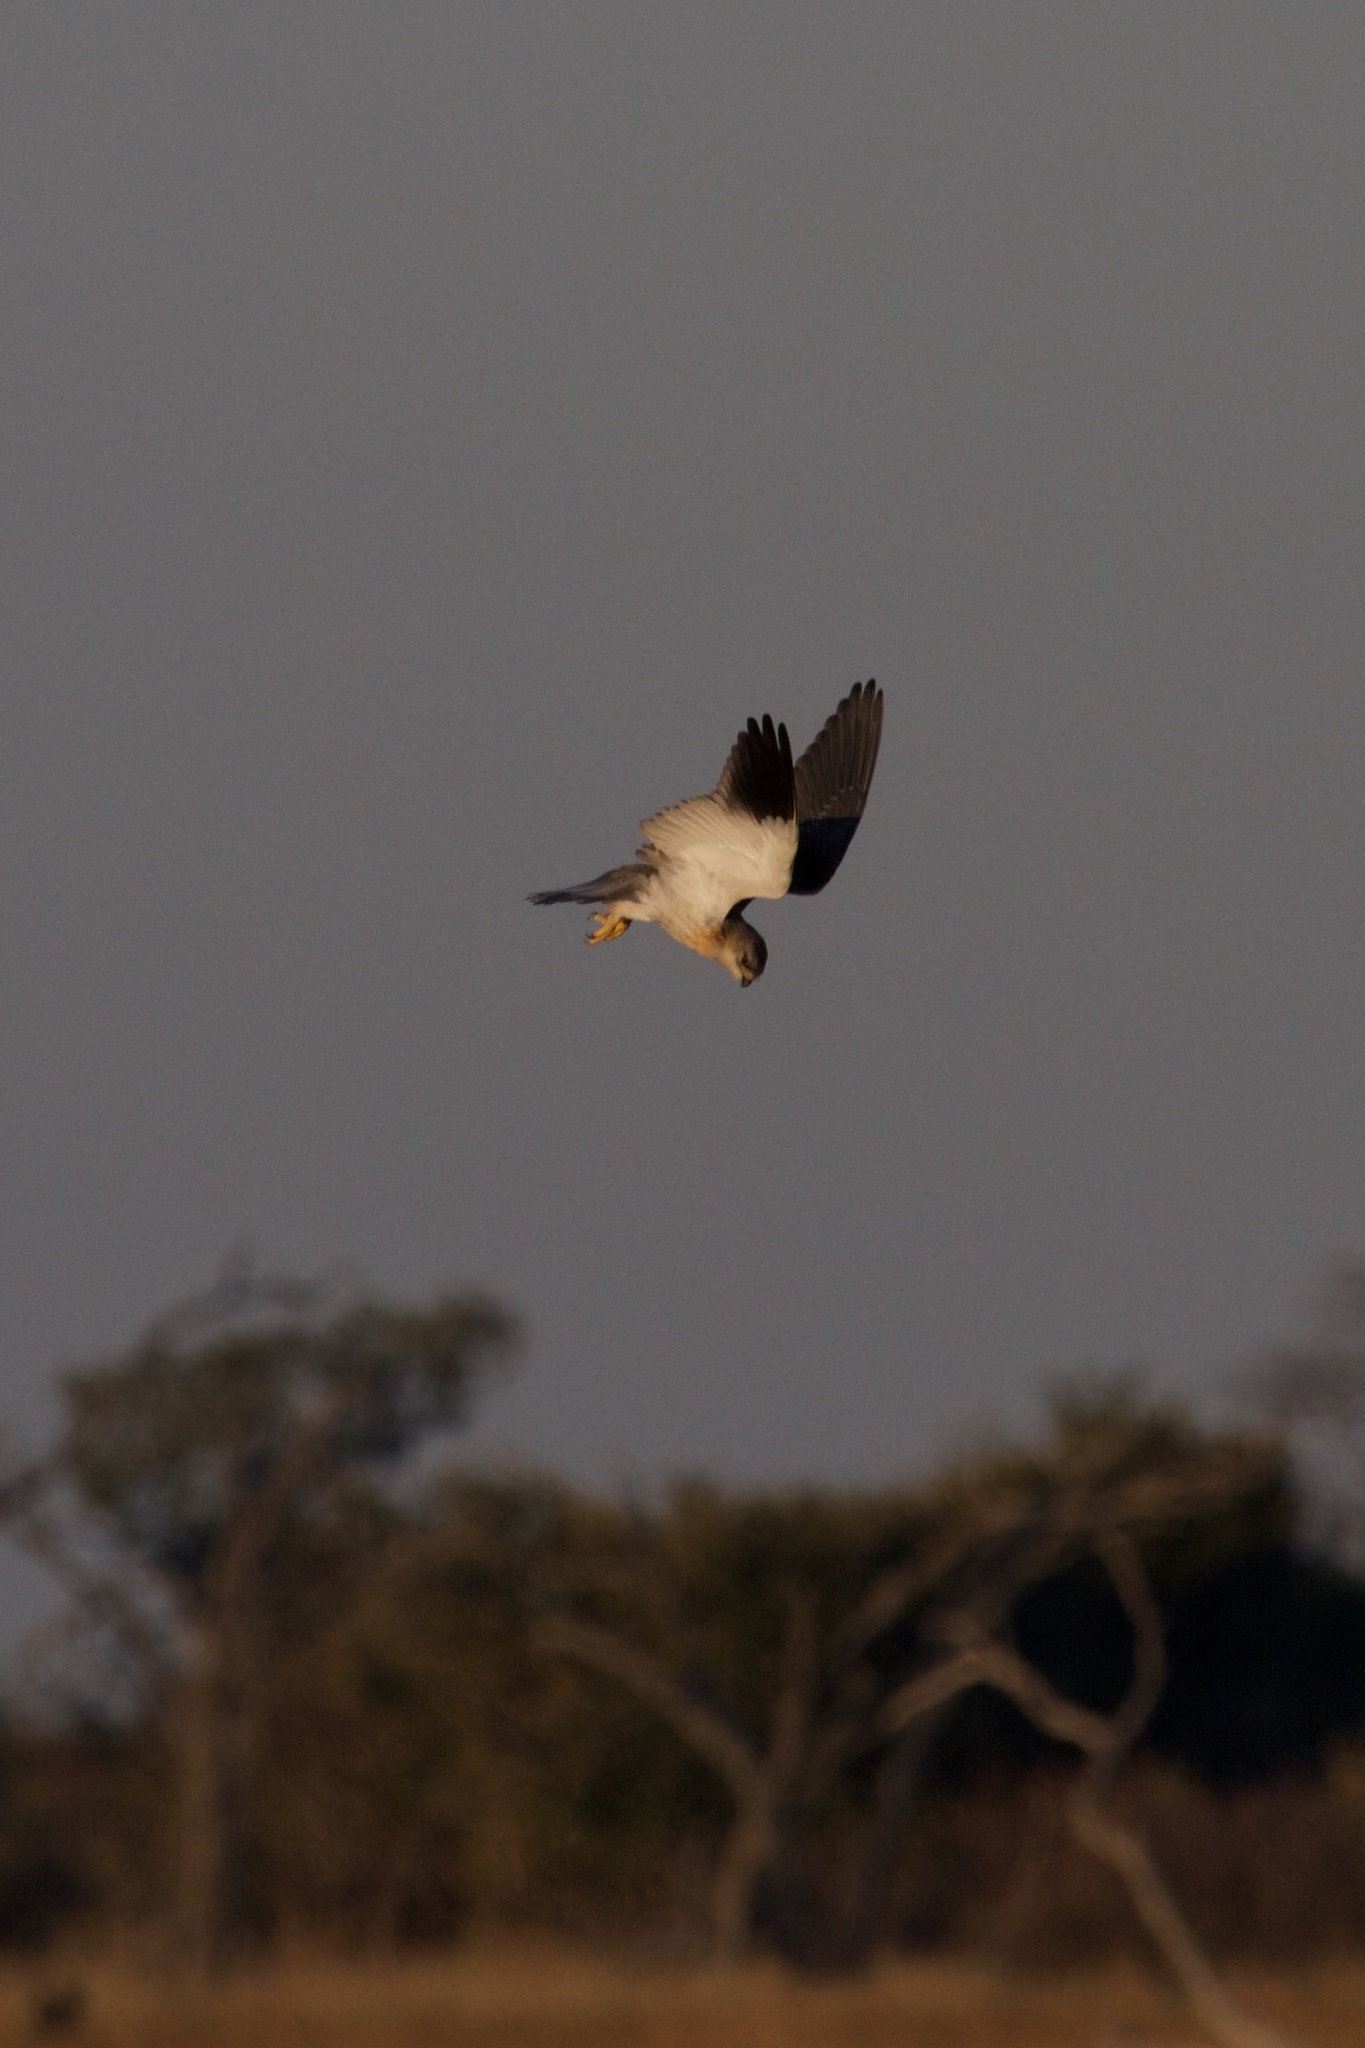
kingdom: Animalia
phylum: Chordata
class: Aves
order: Accipitriformes
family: Accipitridae
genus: Elanus
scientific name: Elanus caeruleus
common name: Black-winged kite
